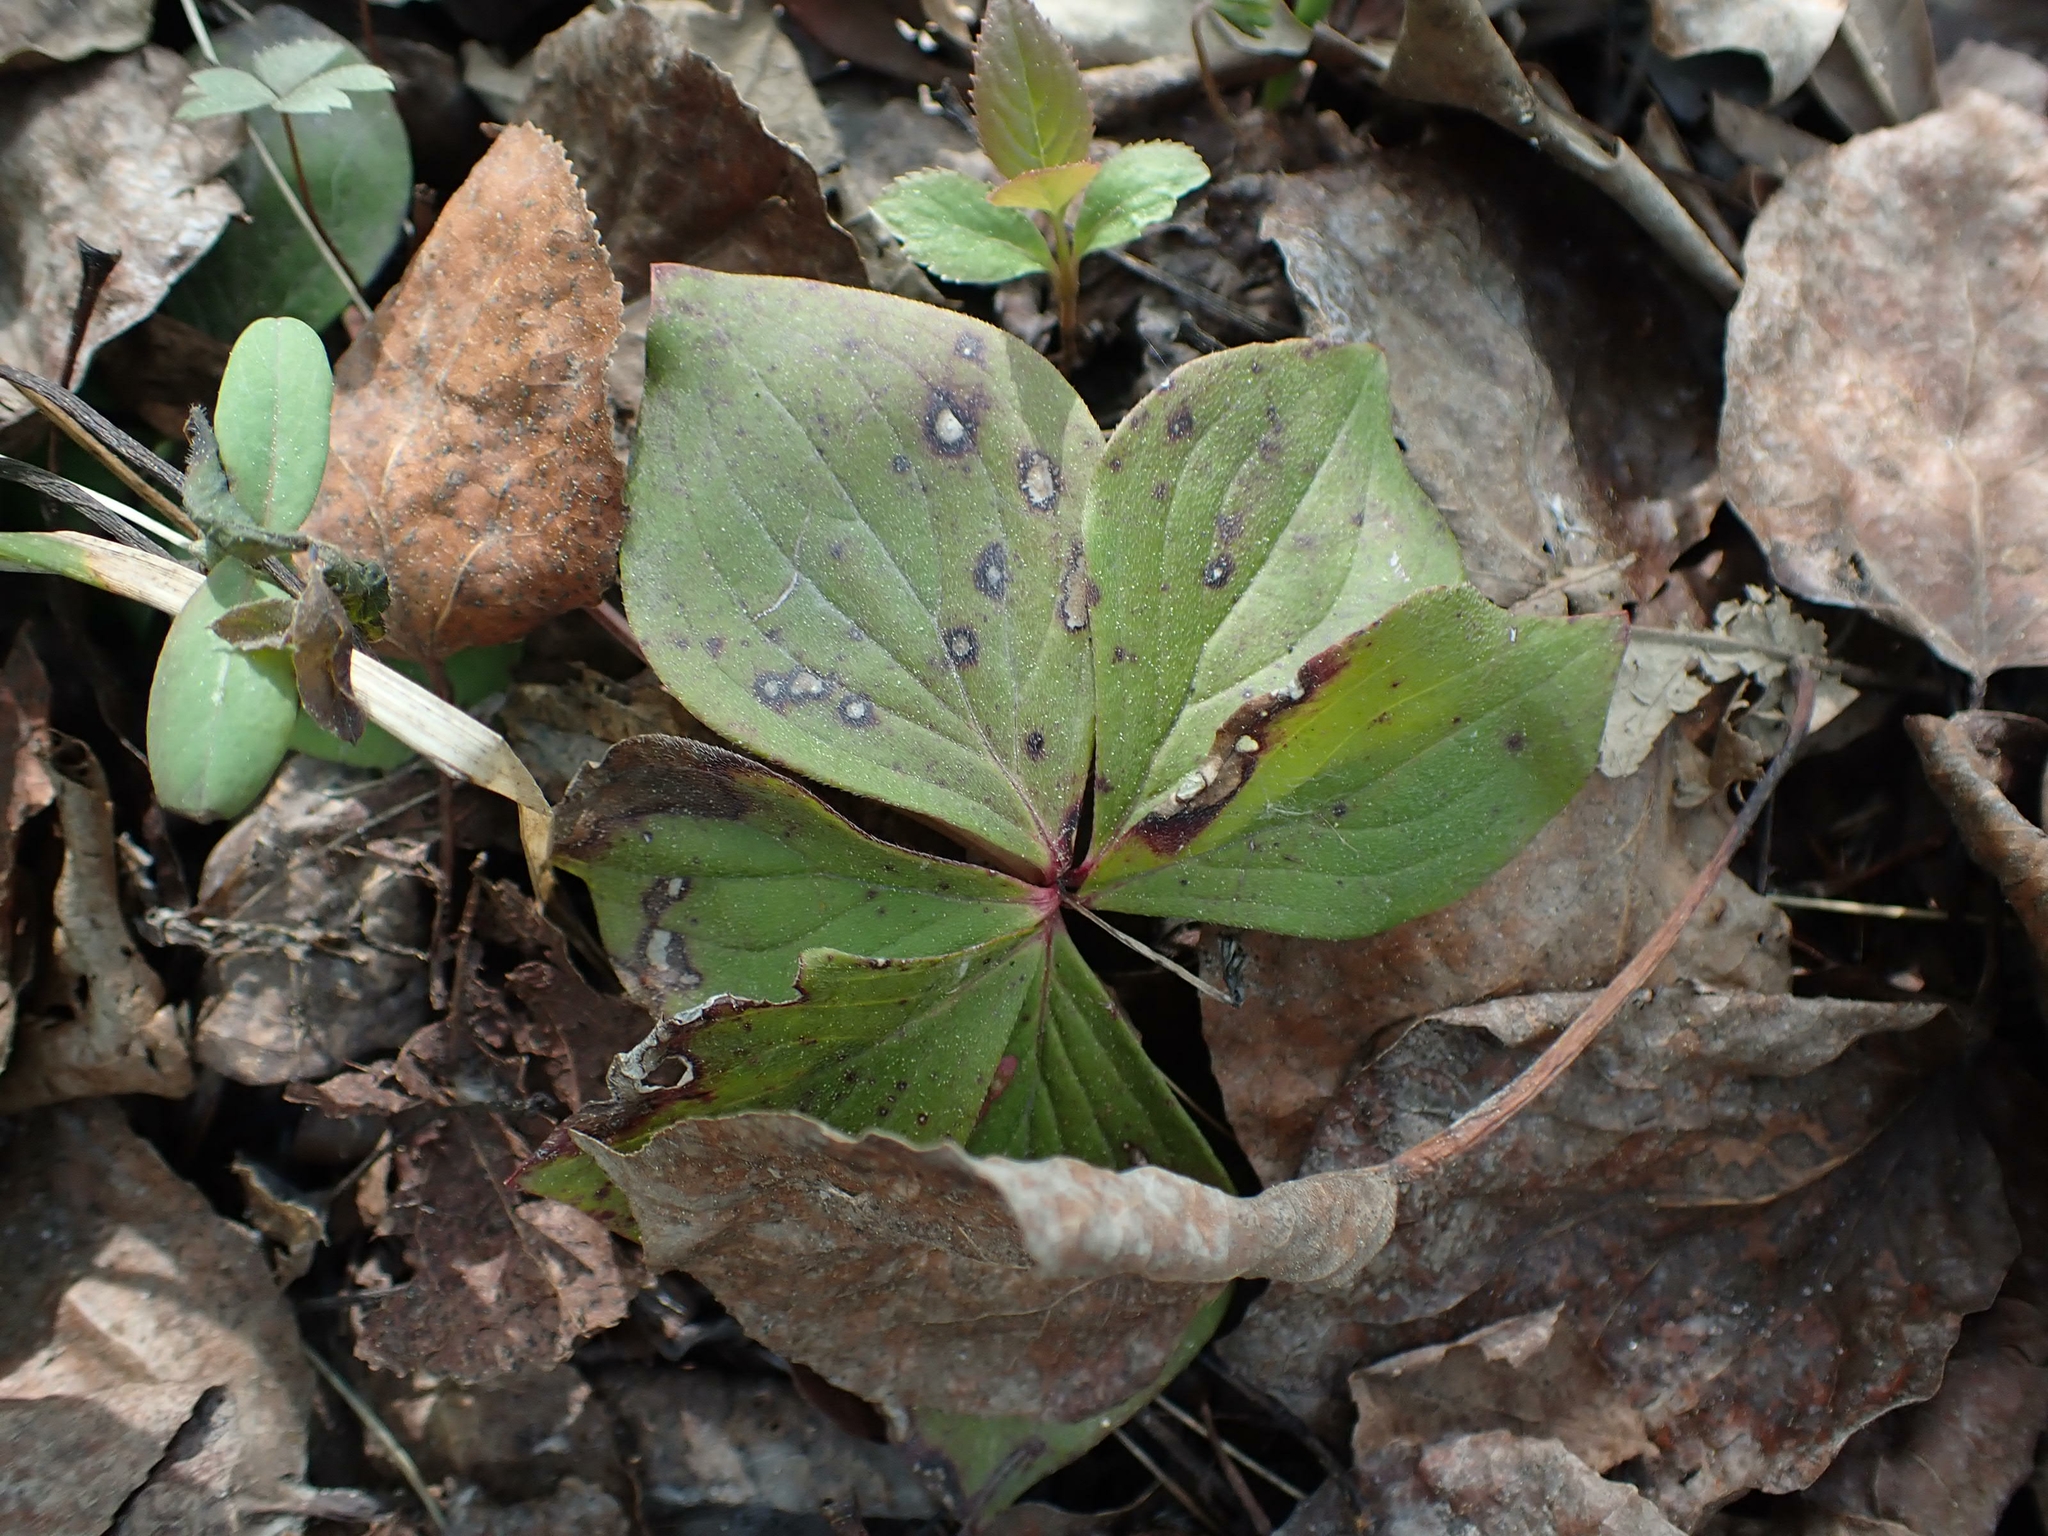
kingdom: Plantae
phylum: Tracheophyta
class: Magnoliopsida
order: Cornales
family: Cornaceae
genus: Cornus
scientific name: Cornus canadensis
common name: Creeping dogwood
